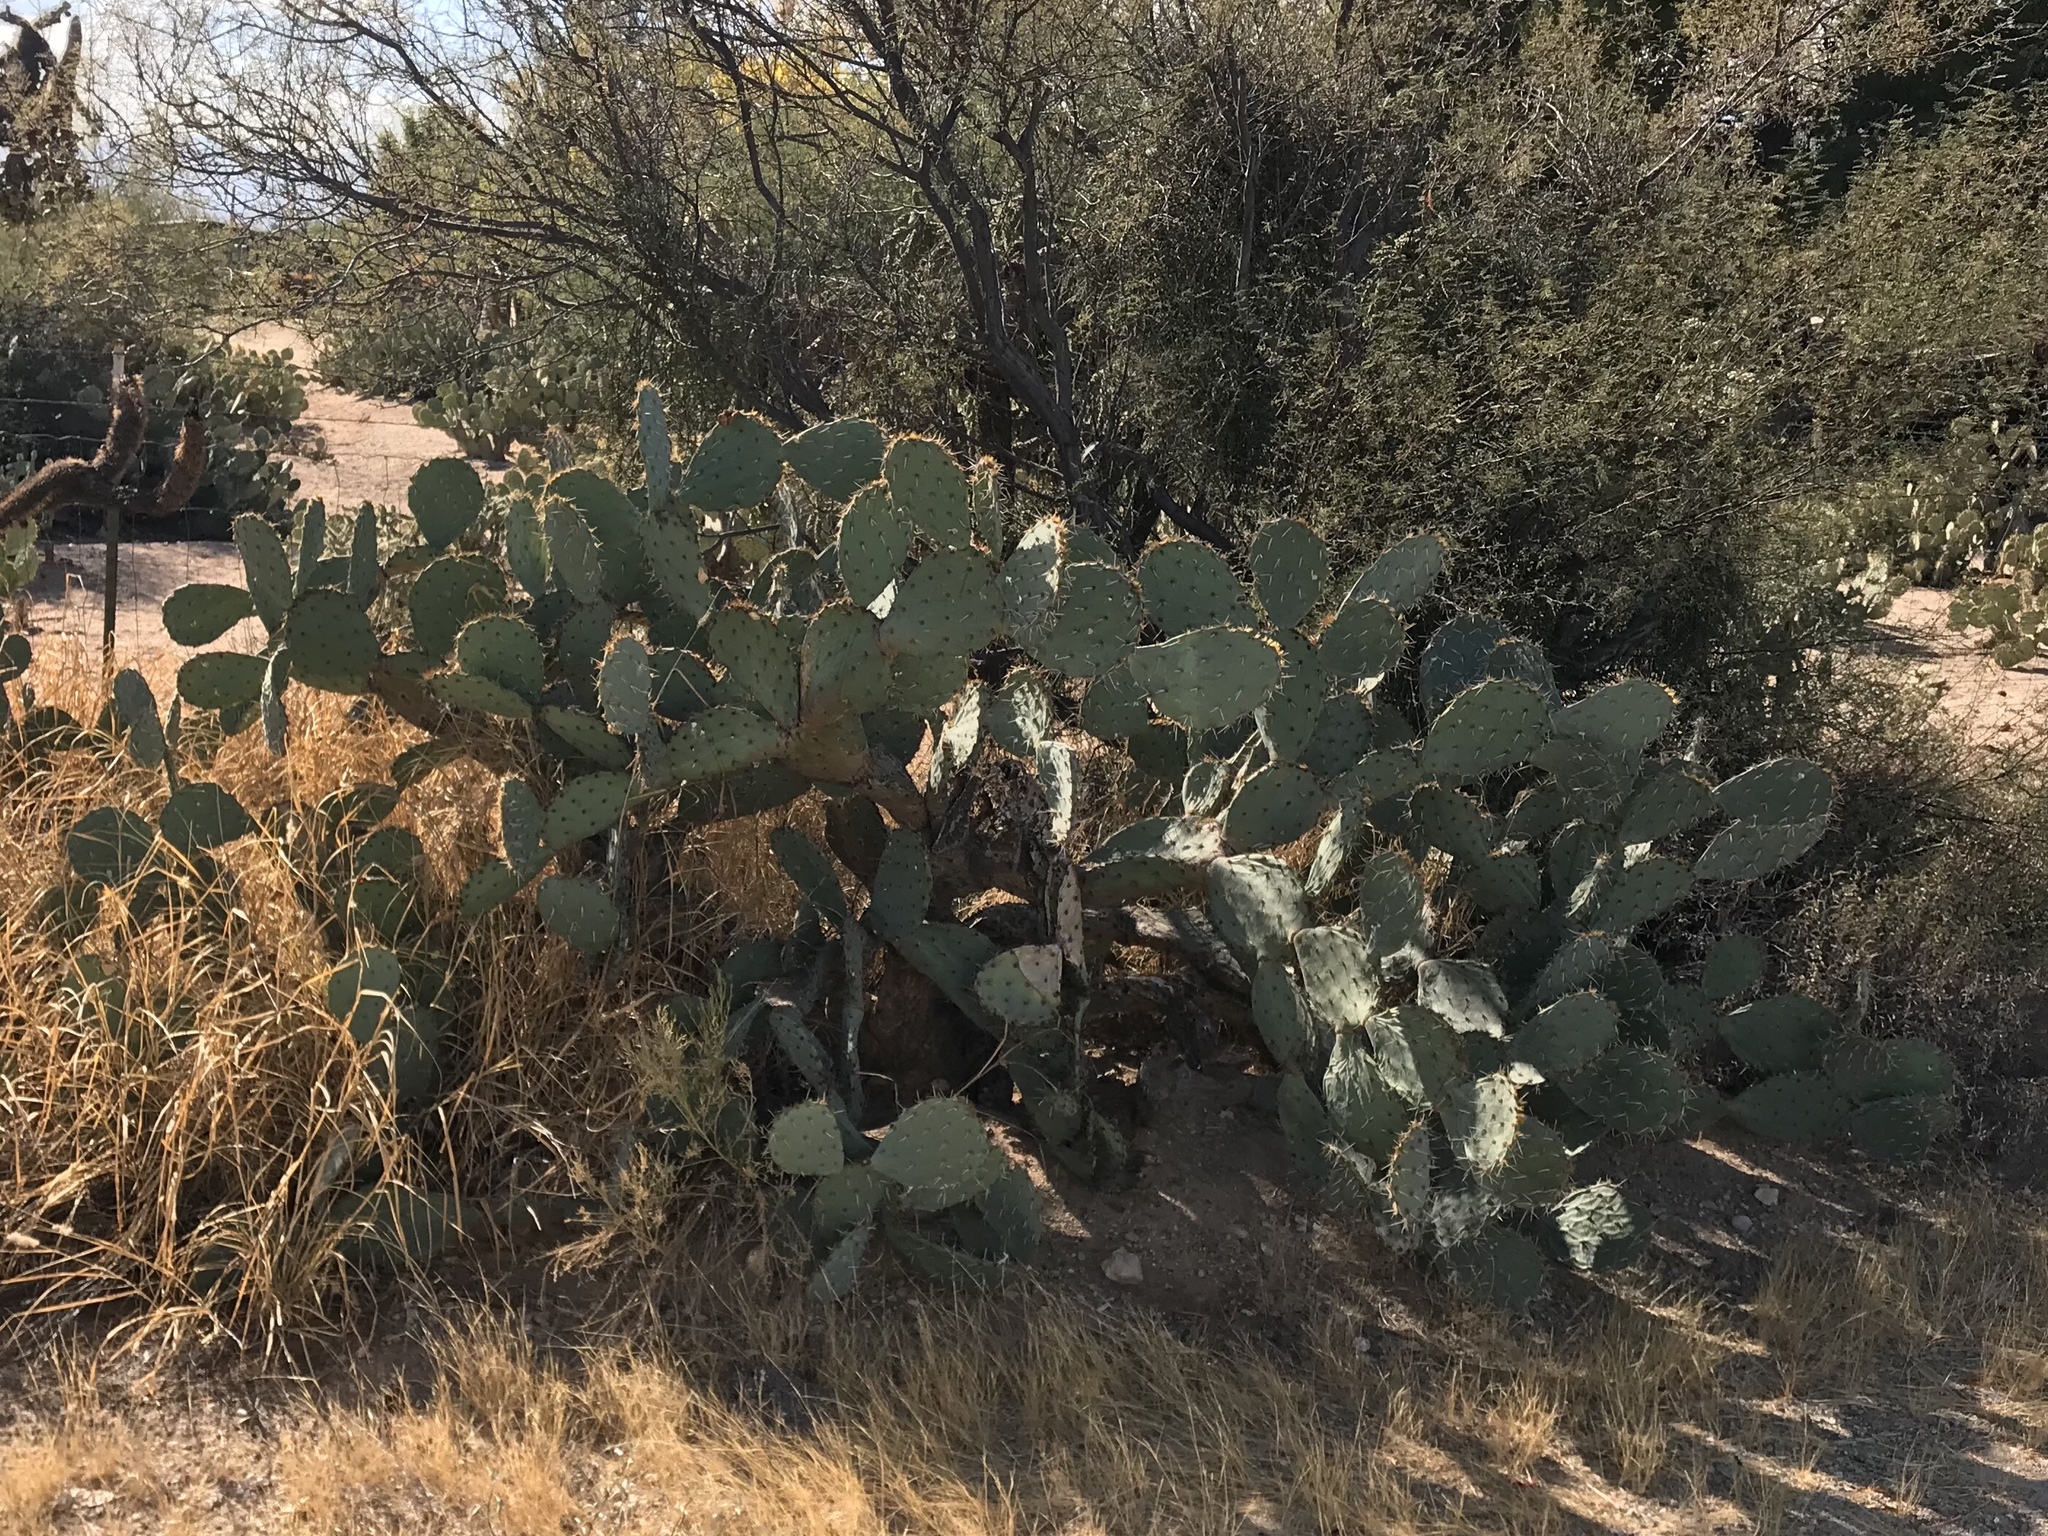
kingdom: Plantae
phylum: Tracheophyta
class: Magnoliopsida
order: Caryophyllales
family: Cactaceae
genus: Opuntia
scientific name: Opuntia engelmannii
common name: Cactus-apple
